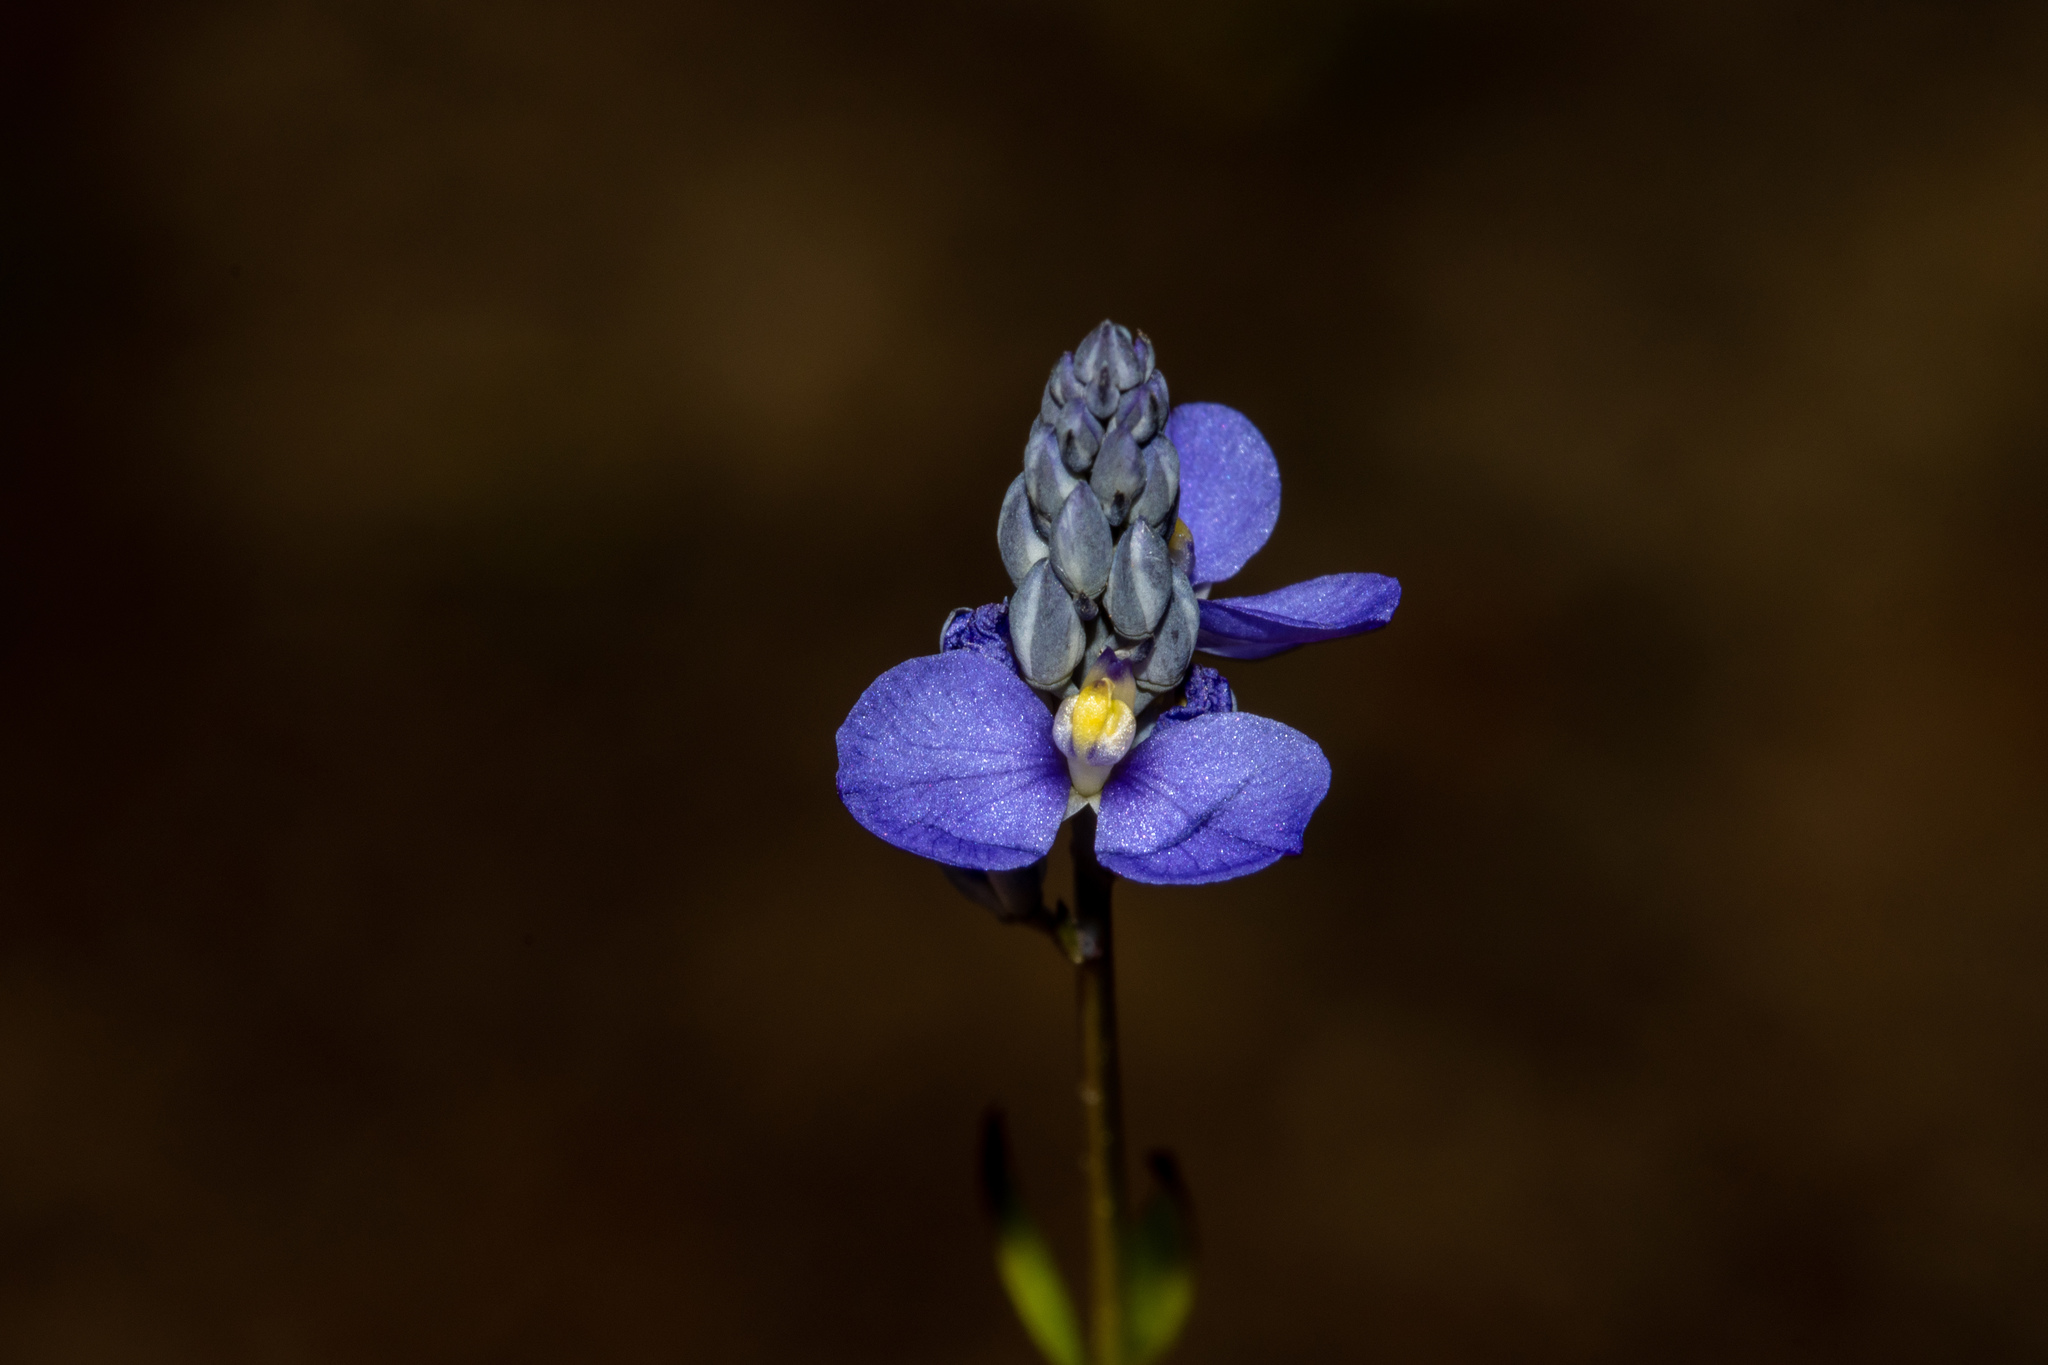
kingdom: Plantae
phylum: Tracheophyta
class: Magnoliopsida
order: Fabales
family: Polygalaceae
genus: Comesperma
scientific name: Comesperma calymega
